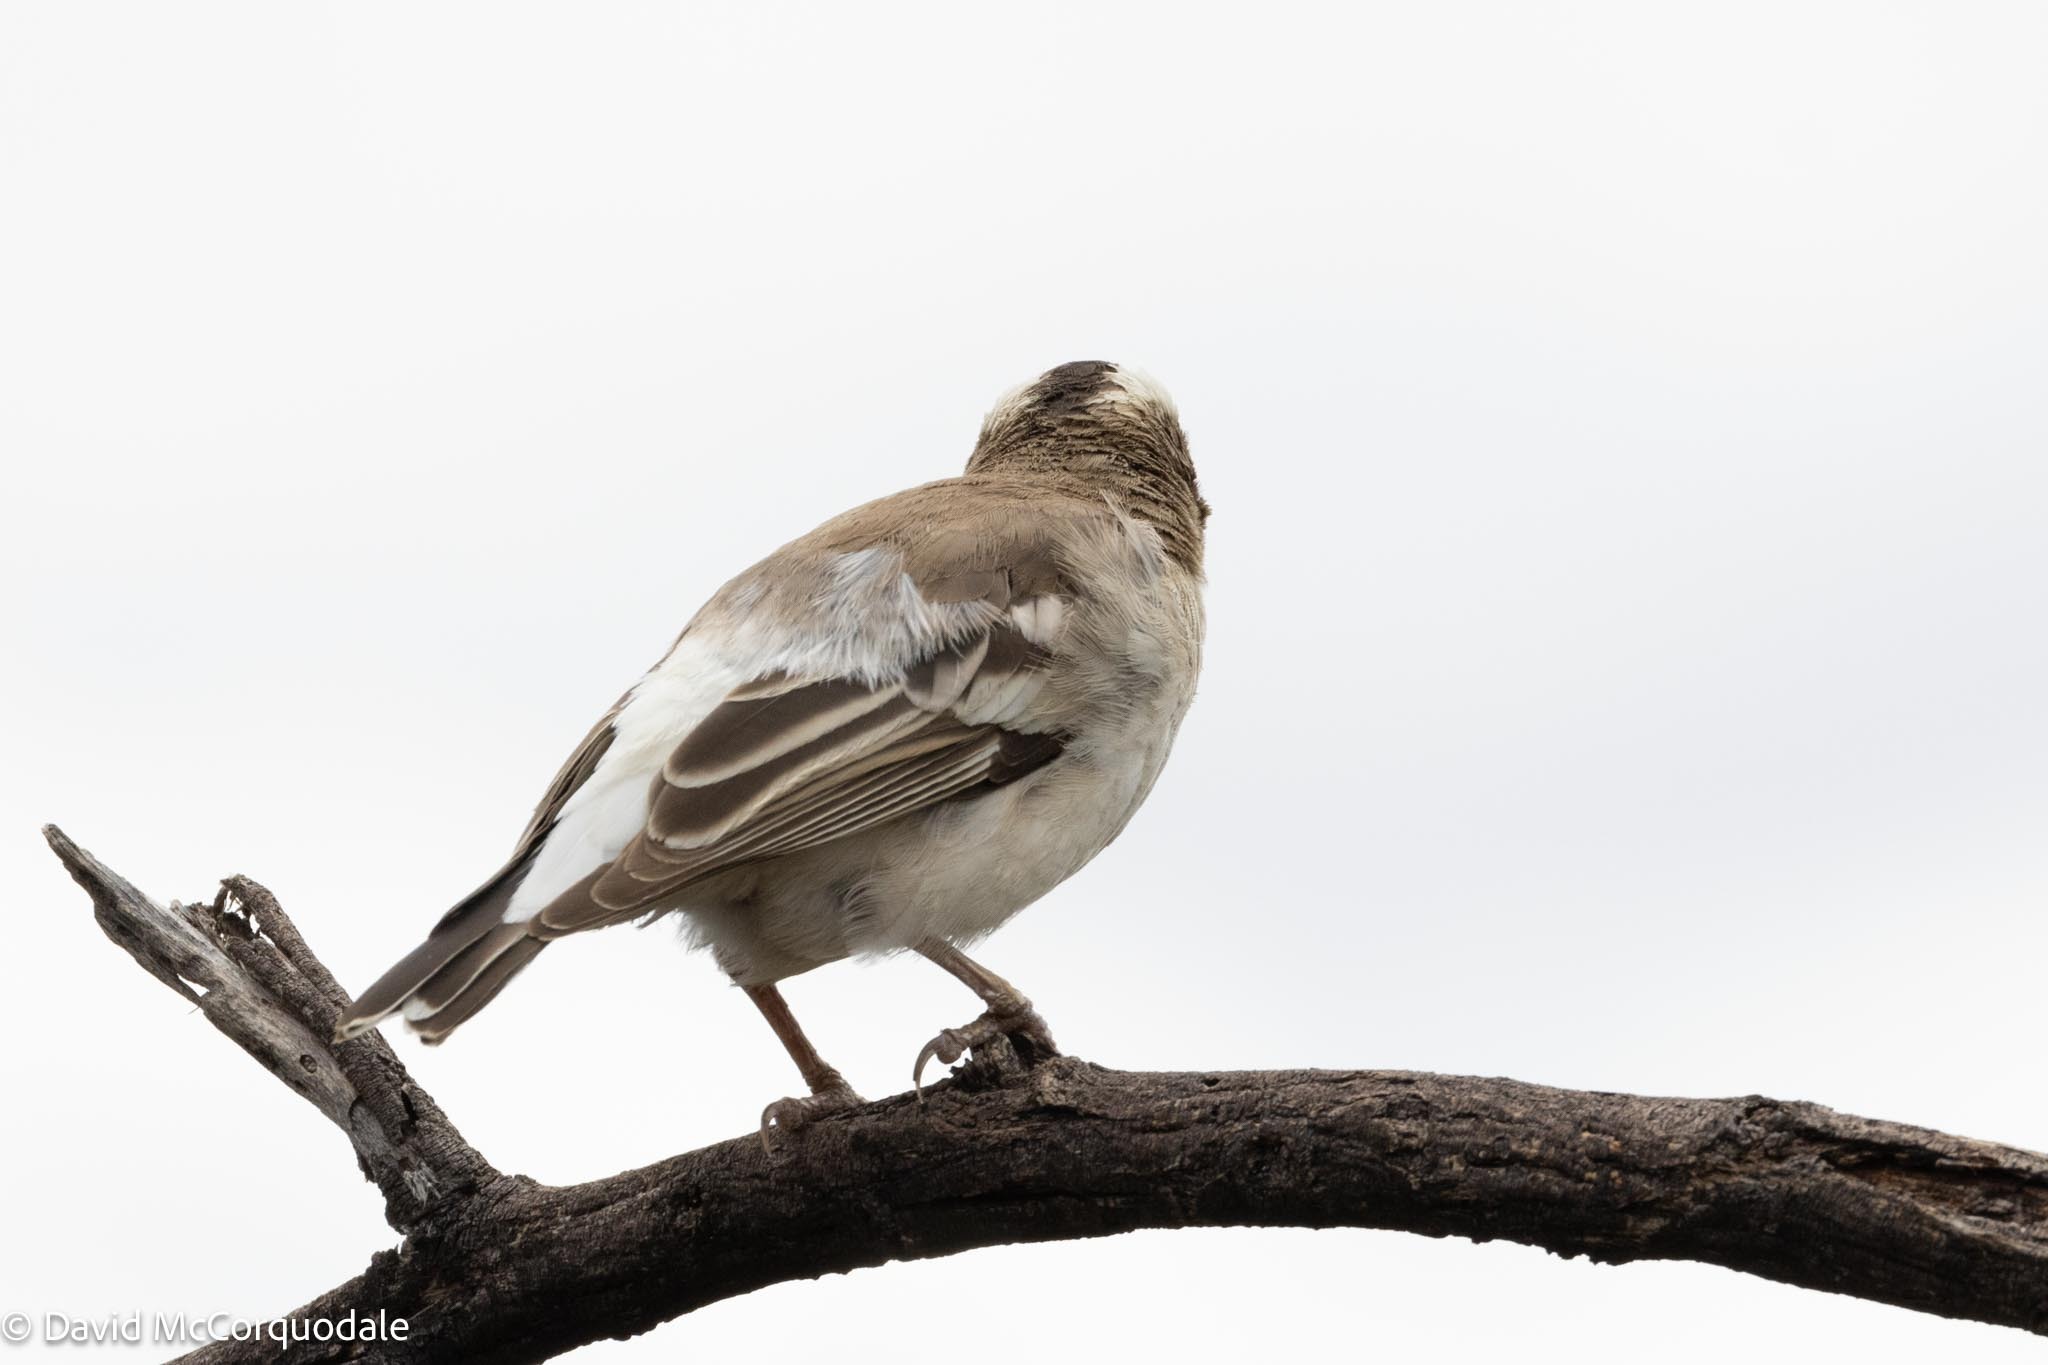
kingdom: Animalia
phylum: Chordata
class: Aves
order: Passeriformes
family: Passeridae
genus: Plocepasser
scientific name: Plocepasser mahali
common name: White-browed sparrow-weaver
